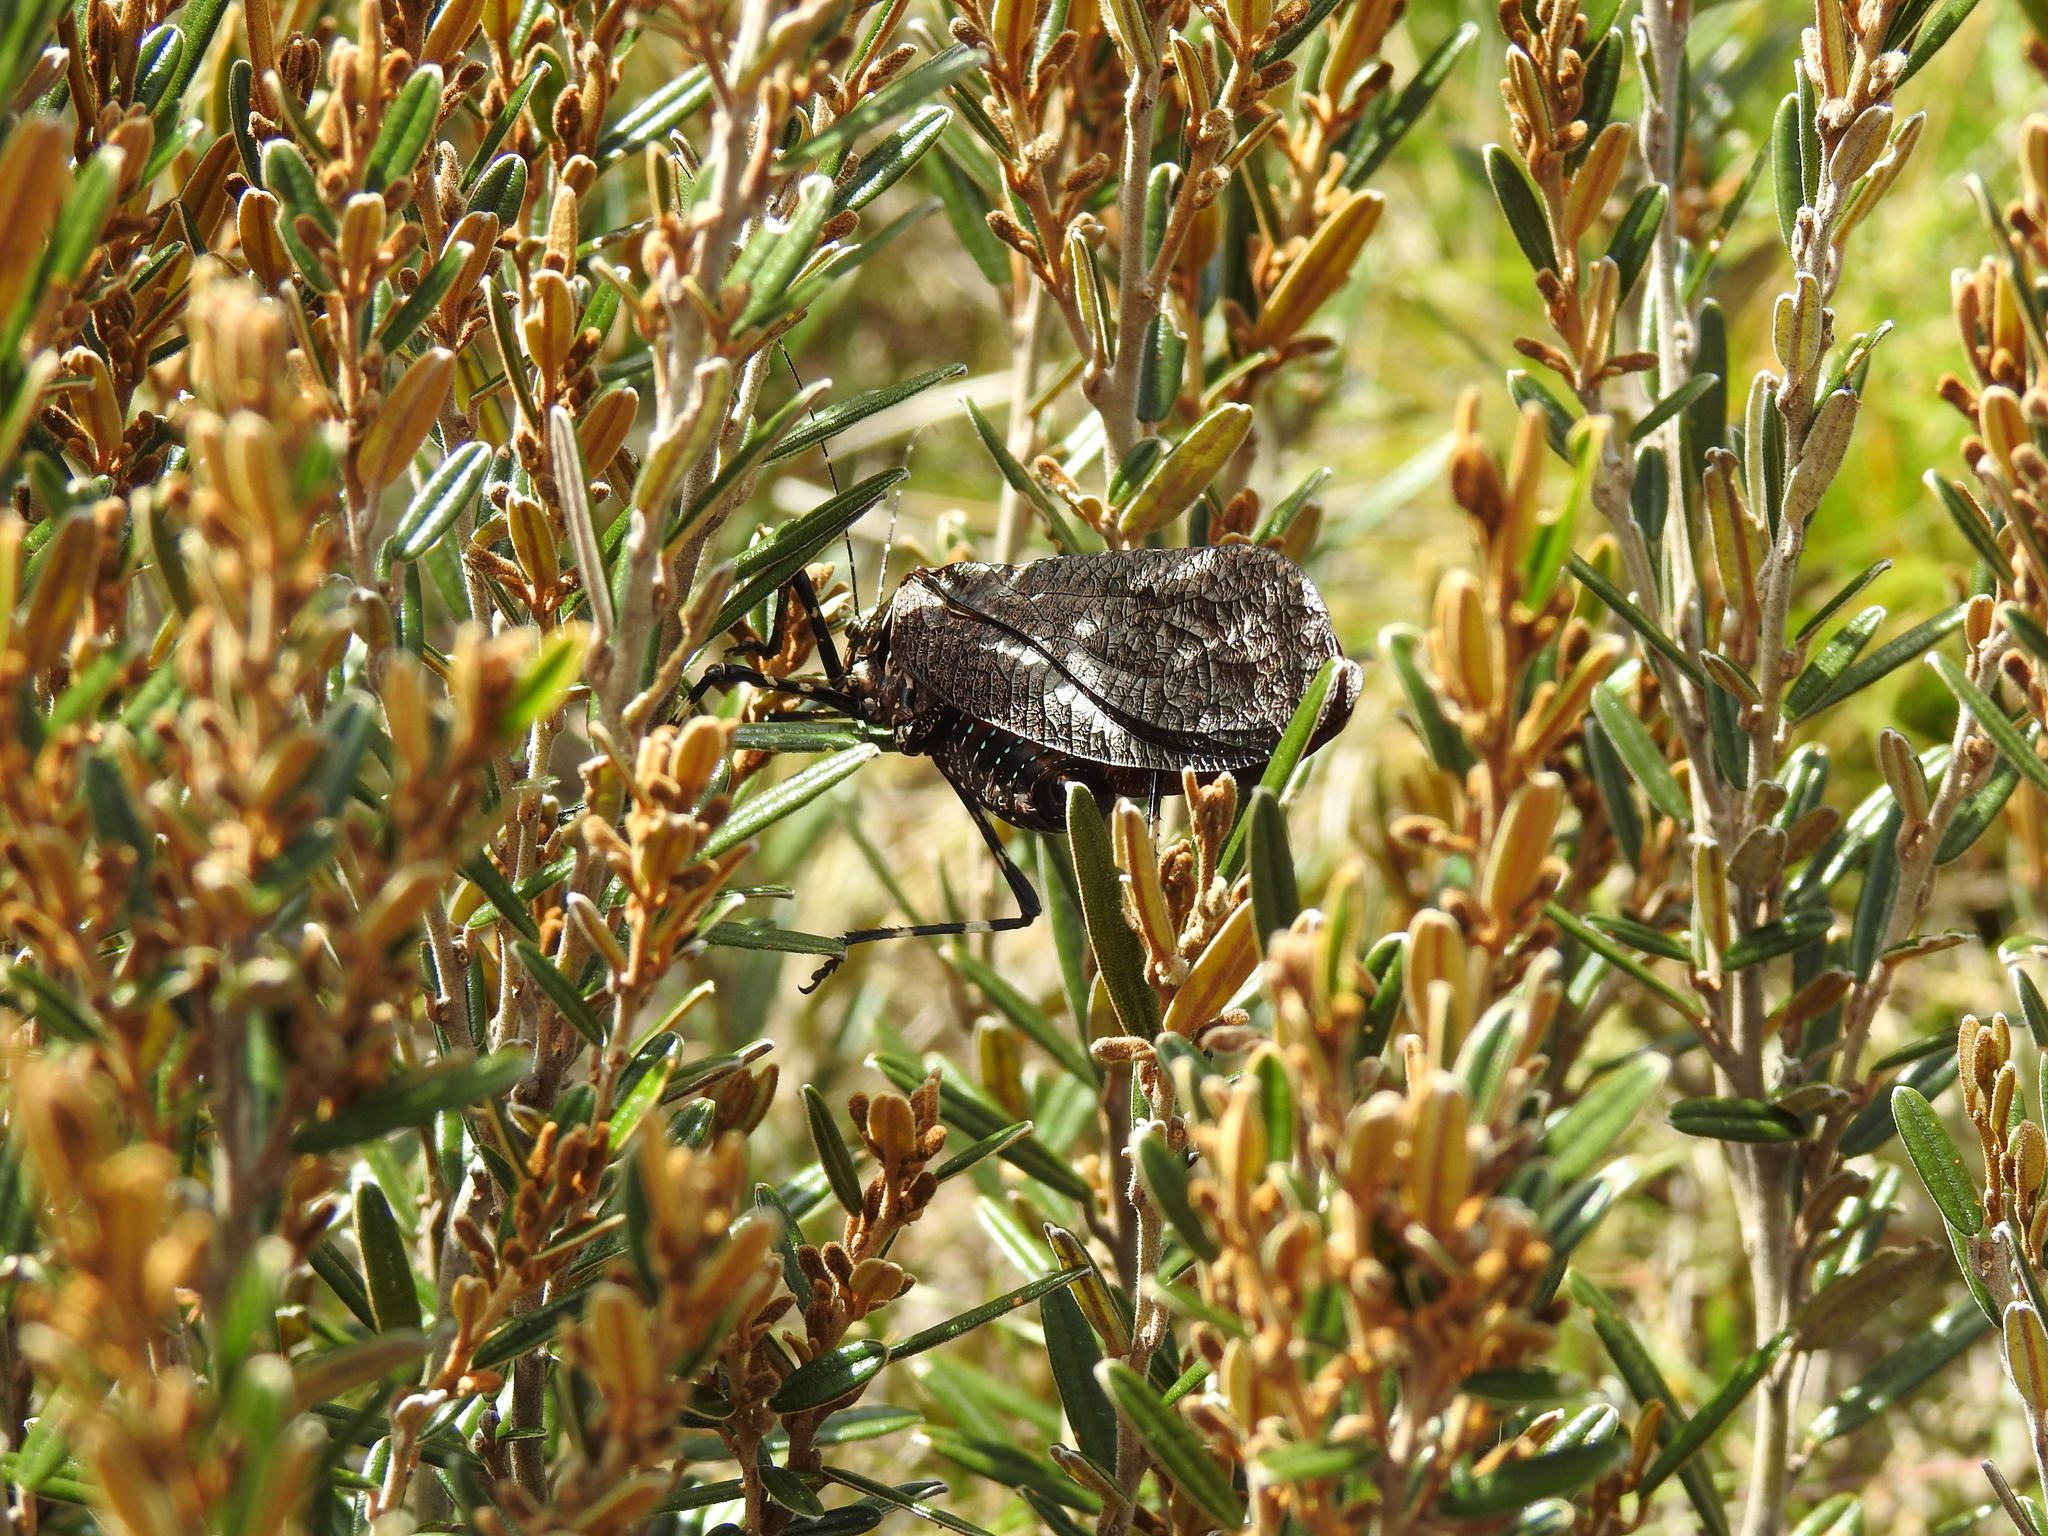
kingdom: Animalia
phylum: Arthropoda
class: Insecta
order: Orthoptera
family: Tettigoniidae
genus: Acripeza
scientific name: Acripeza reticulata
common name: Mountain katydid
